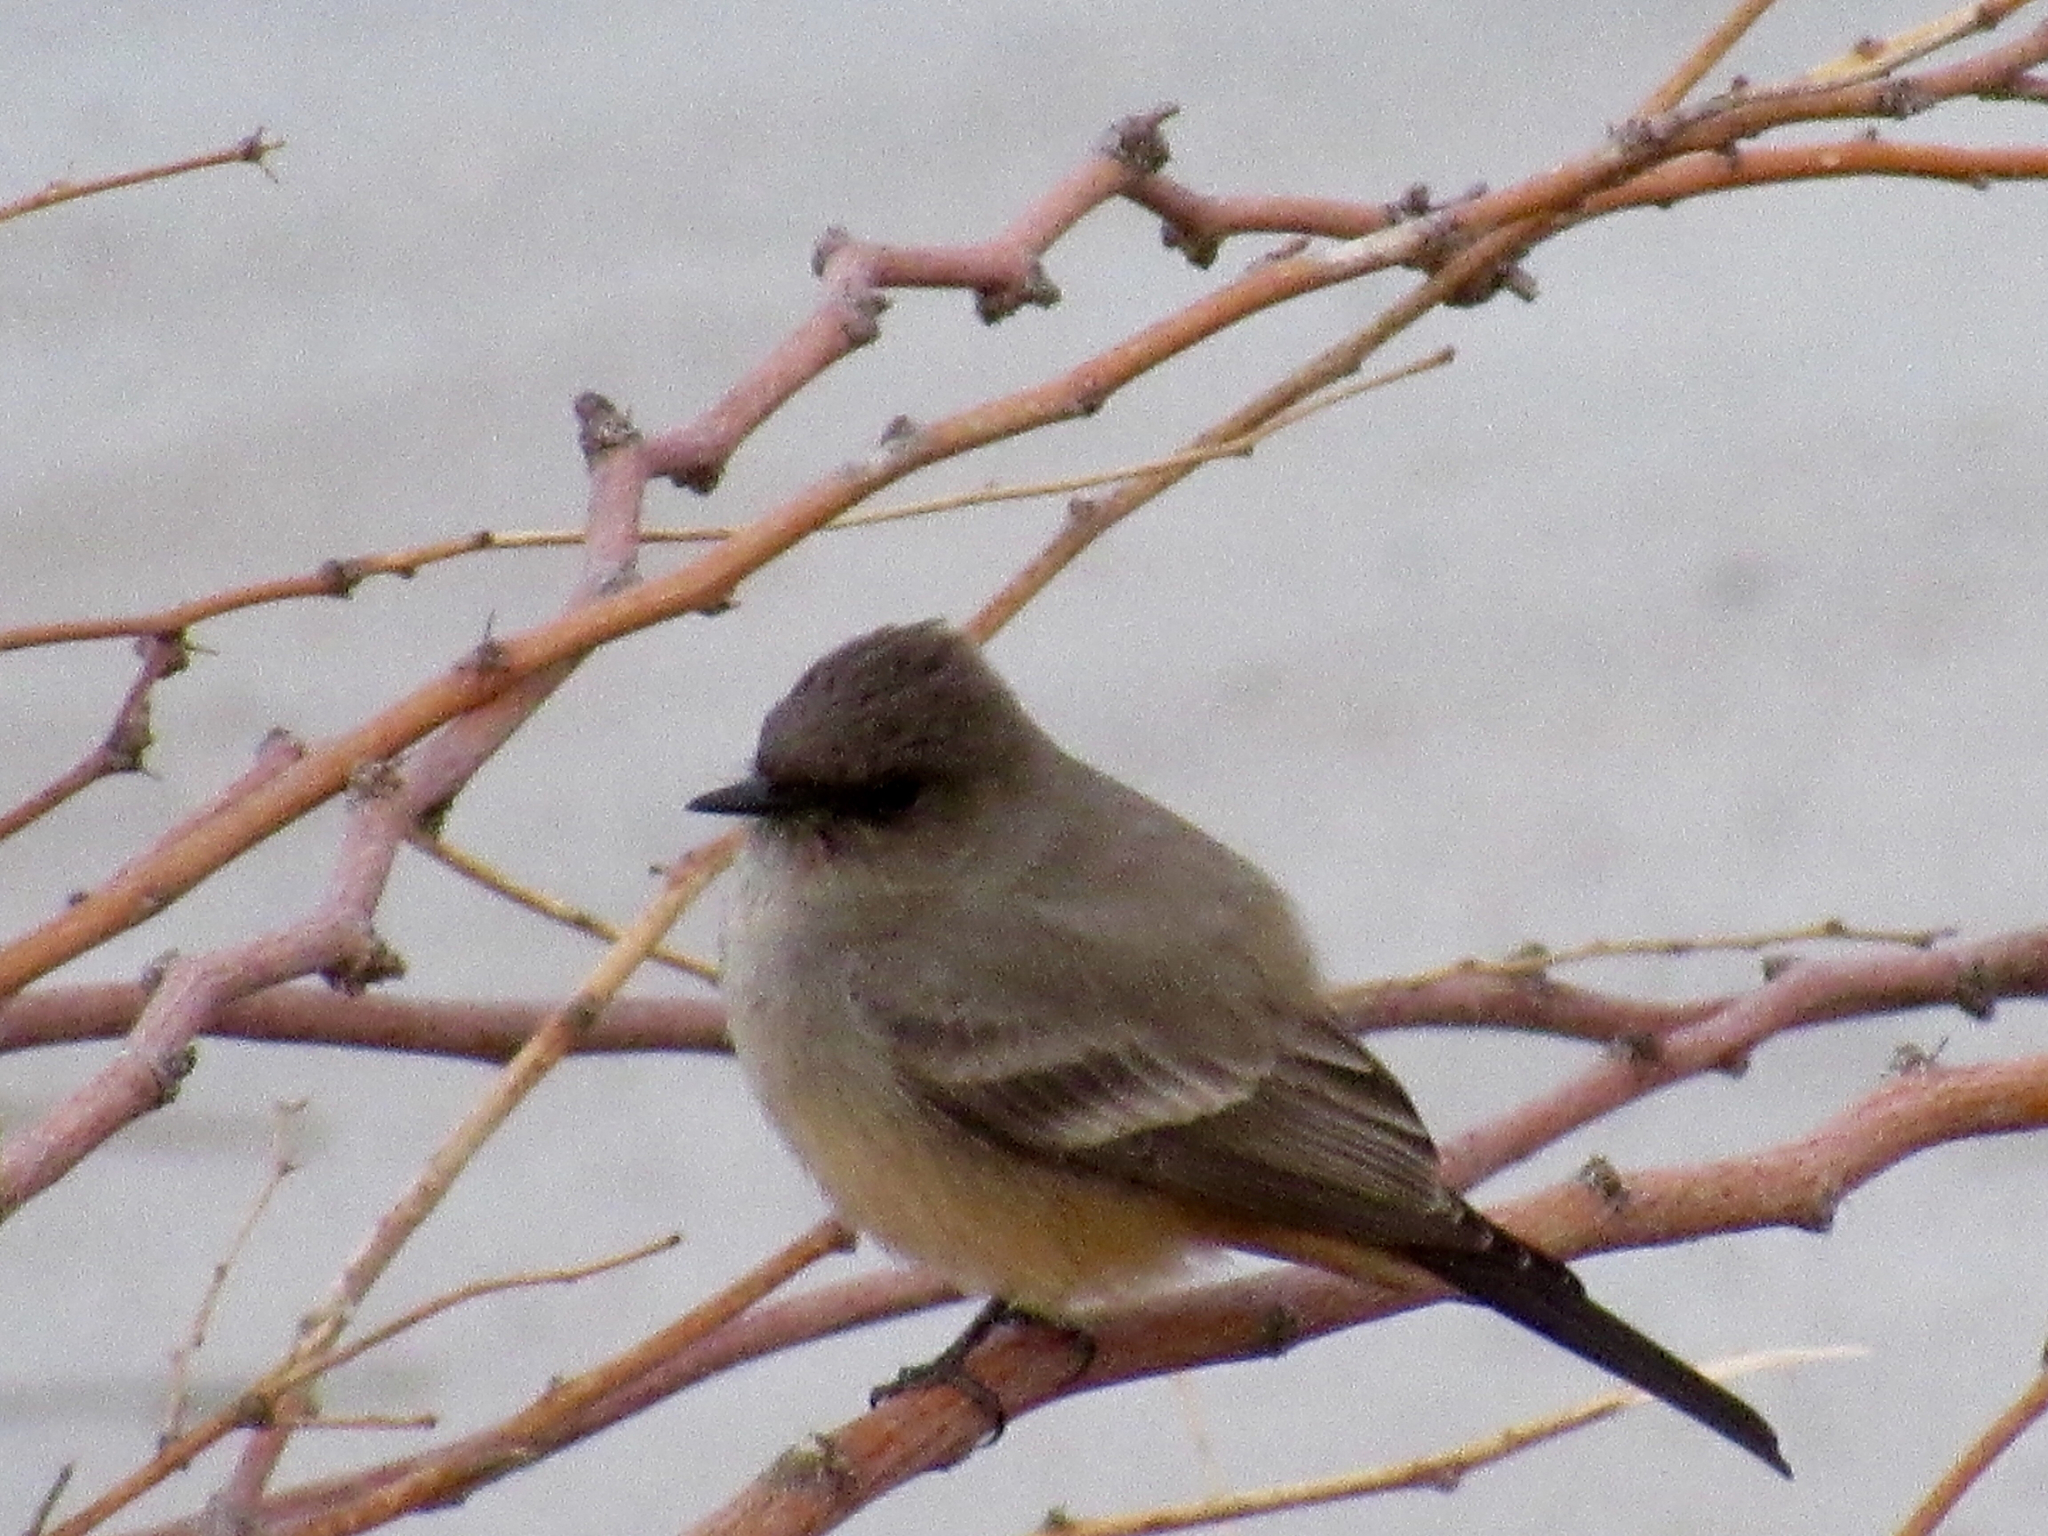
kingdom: Animalia
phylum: Chordata
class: Aves
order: Passeriformes
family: Tyrannidae
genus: Sayornis
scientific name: Sayornis saya
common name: Say's phoebe
